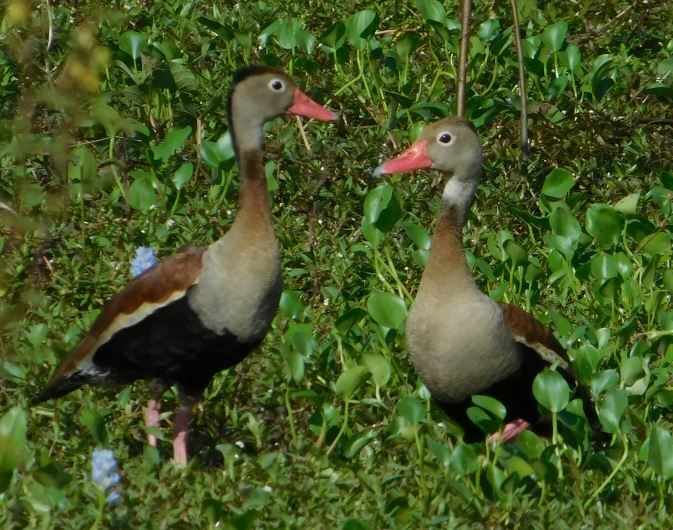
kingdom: Animalia
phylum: Chordata
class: Aves
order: Anseriformes
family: Anatidae
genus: Dendrocygna
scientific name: Dendrocygna autumnalis
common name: Black-bellied whistling duck
